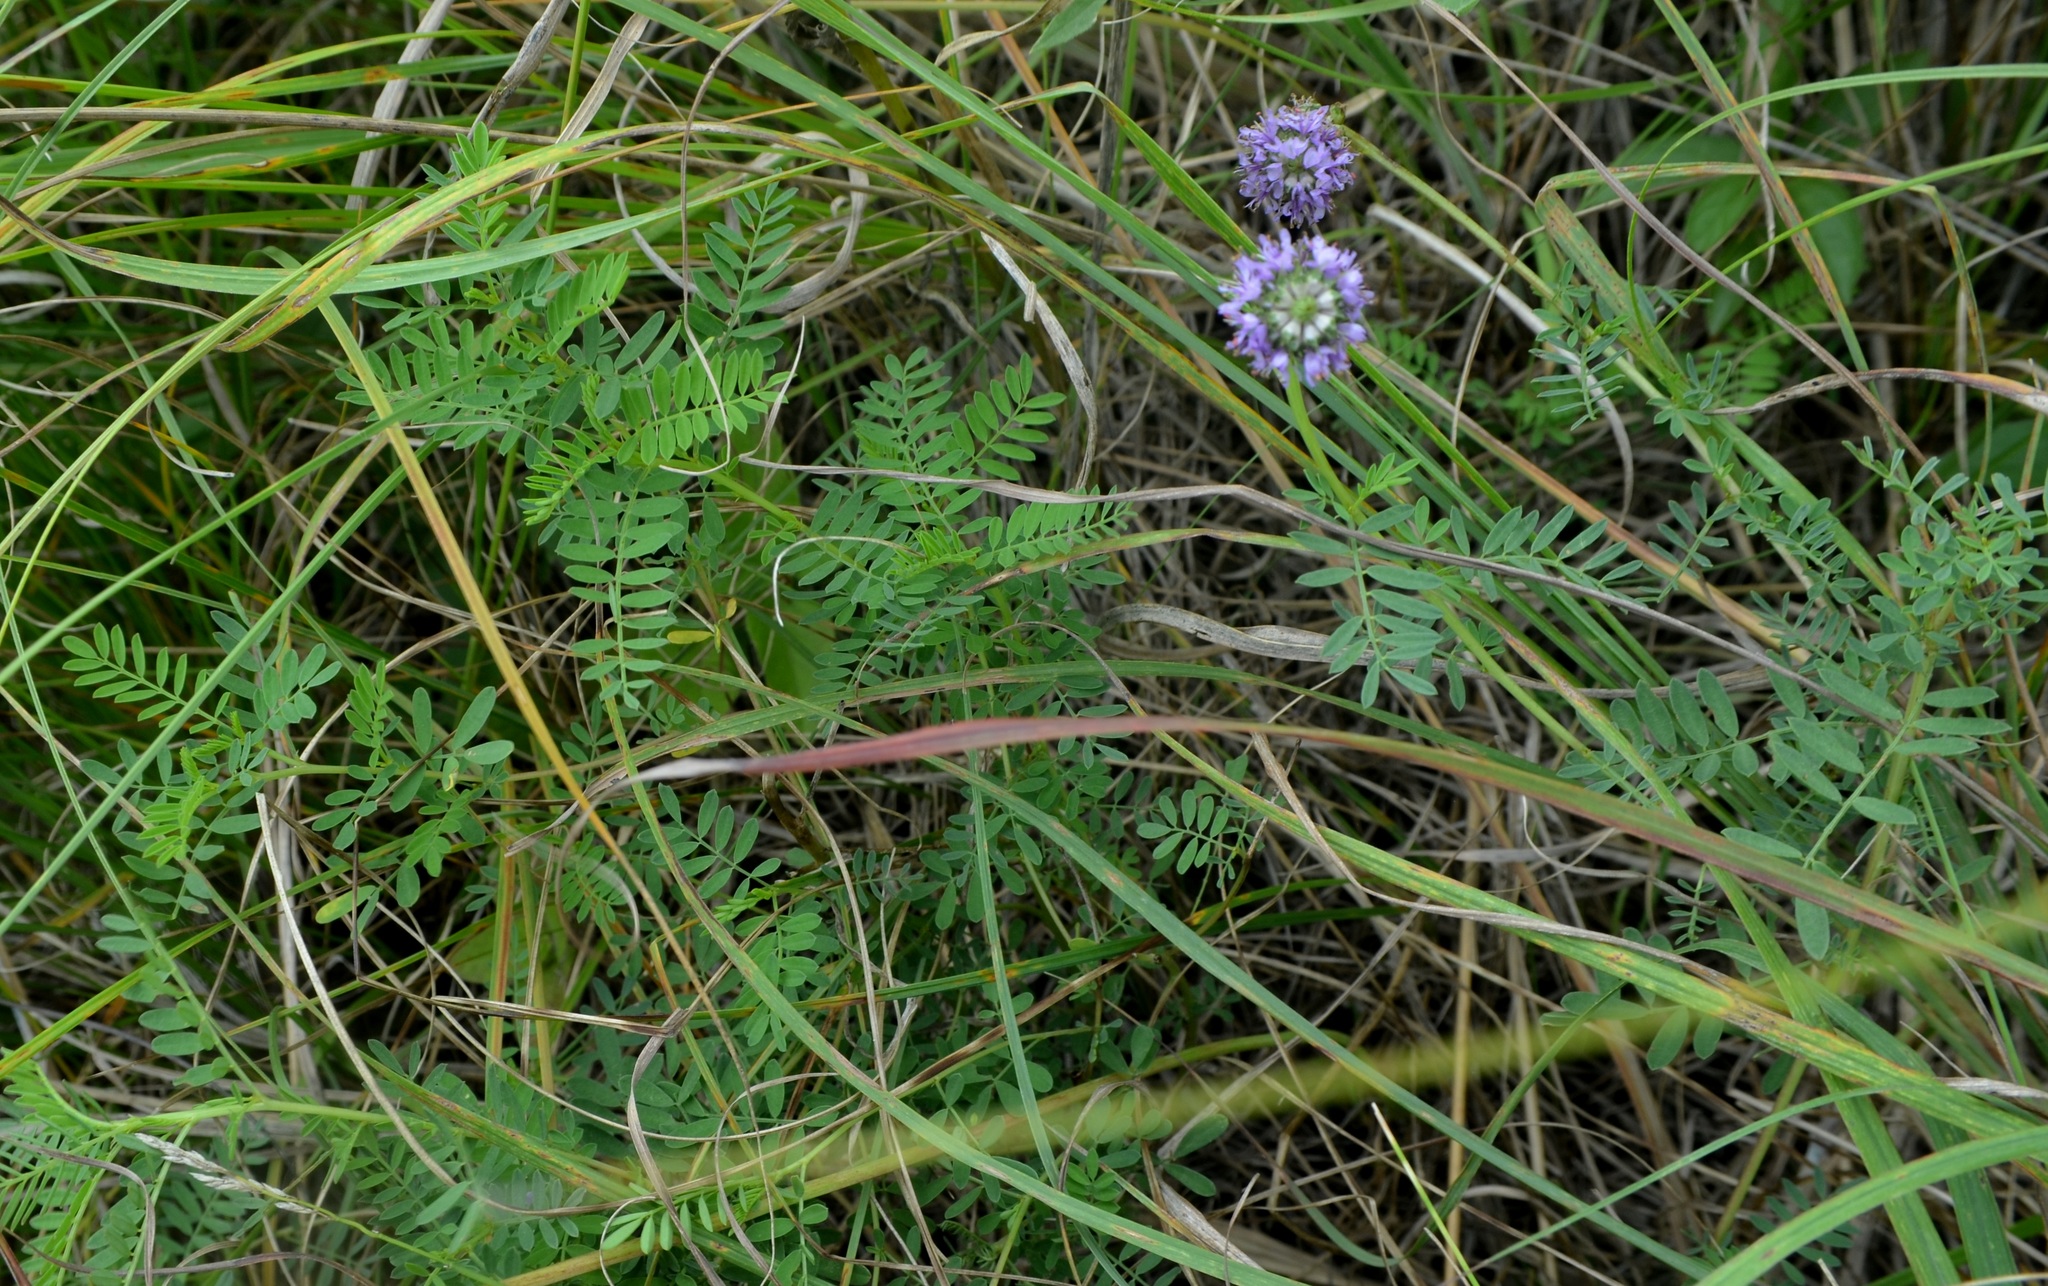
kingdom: Plantae
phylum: Tracheophyta
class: Magnoliopsida
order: Fabales
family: Fabaceae
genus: Dalea
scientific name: Dalea foliosa
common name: Leafy prairie-clover
